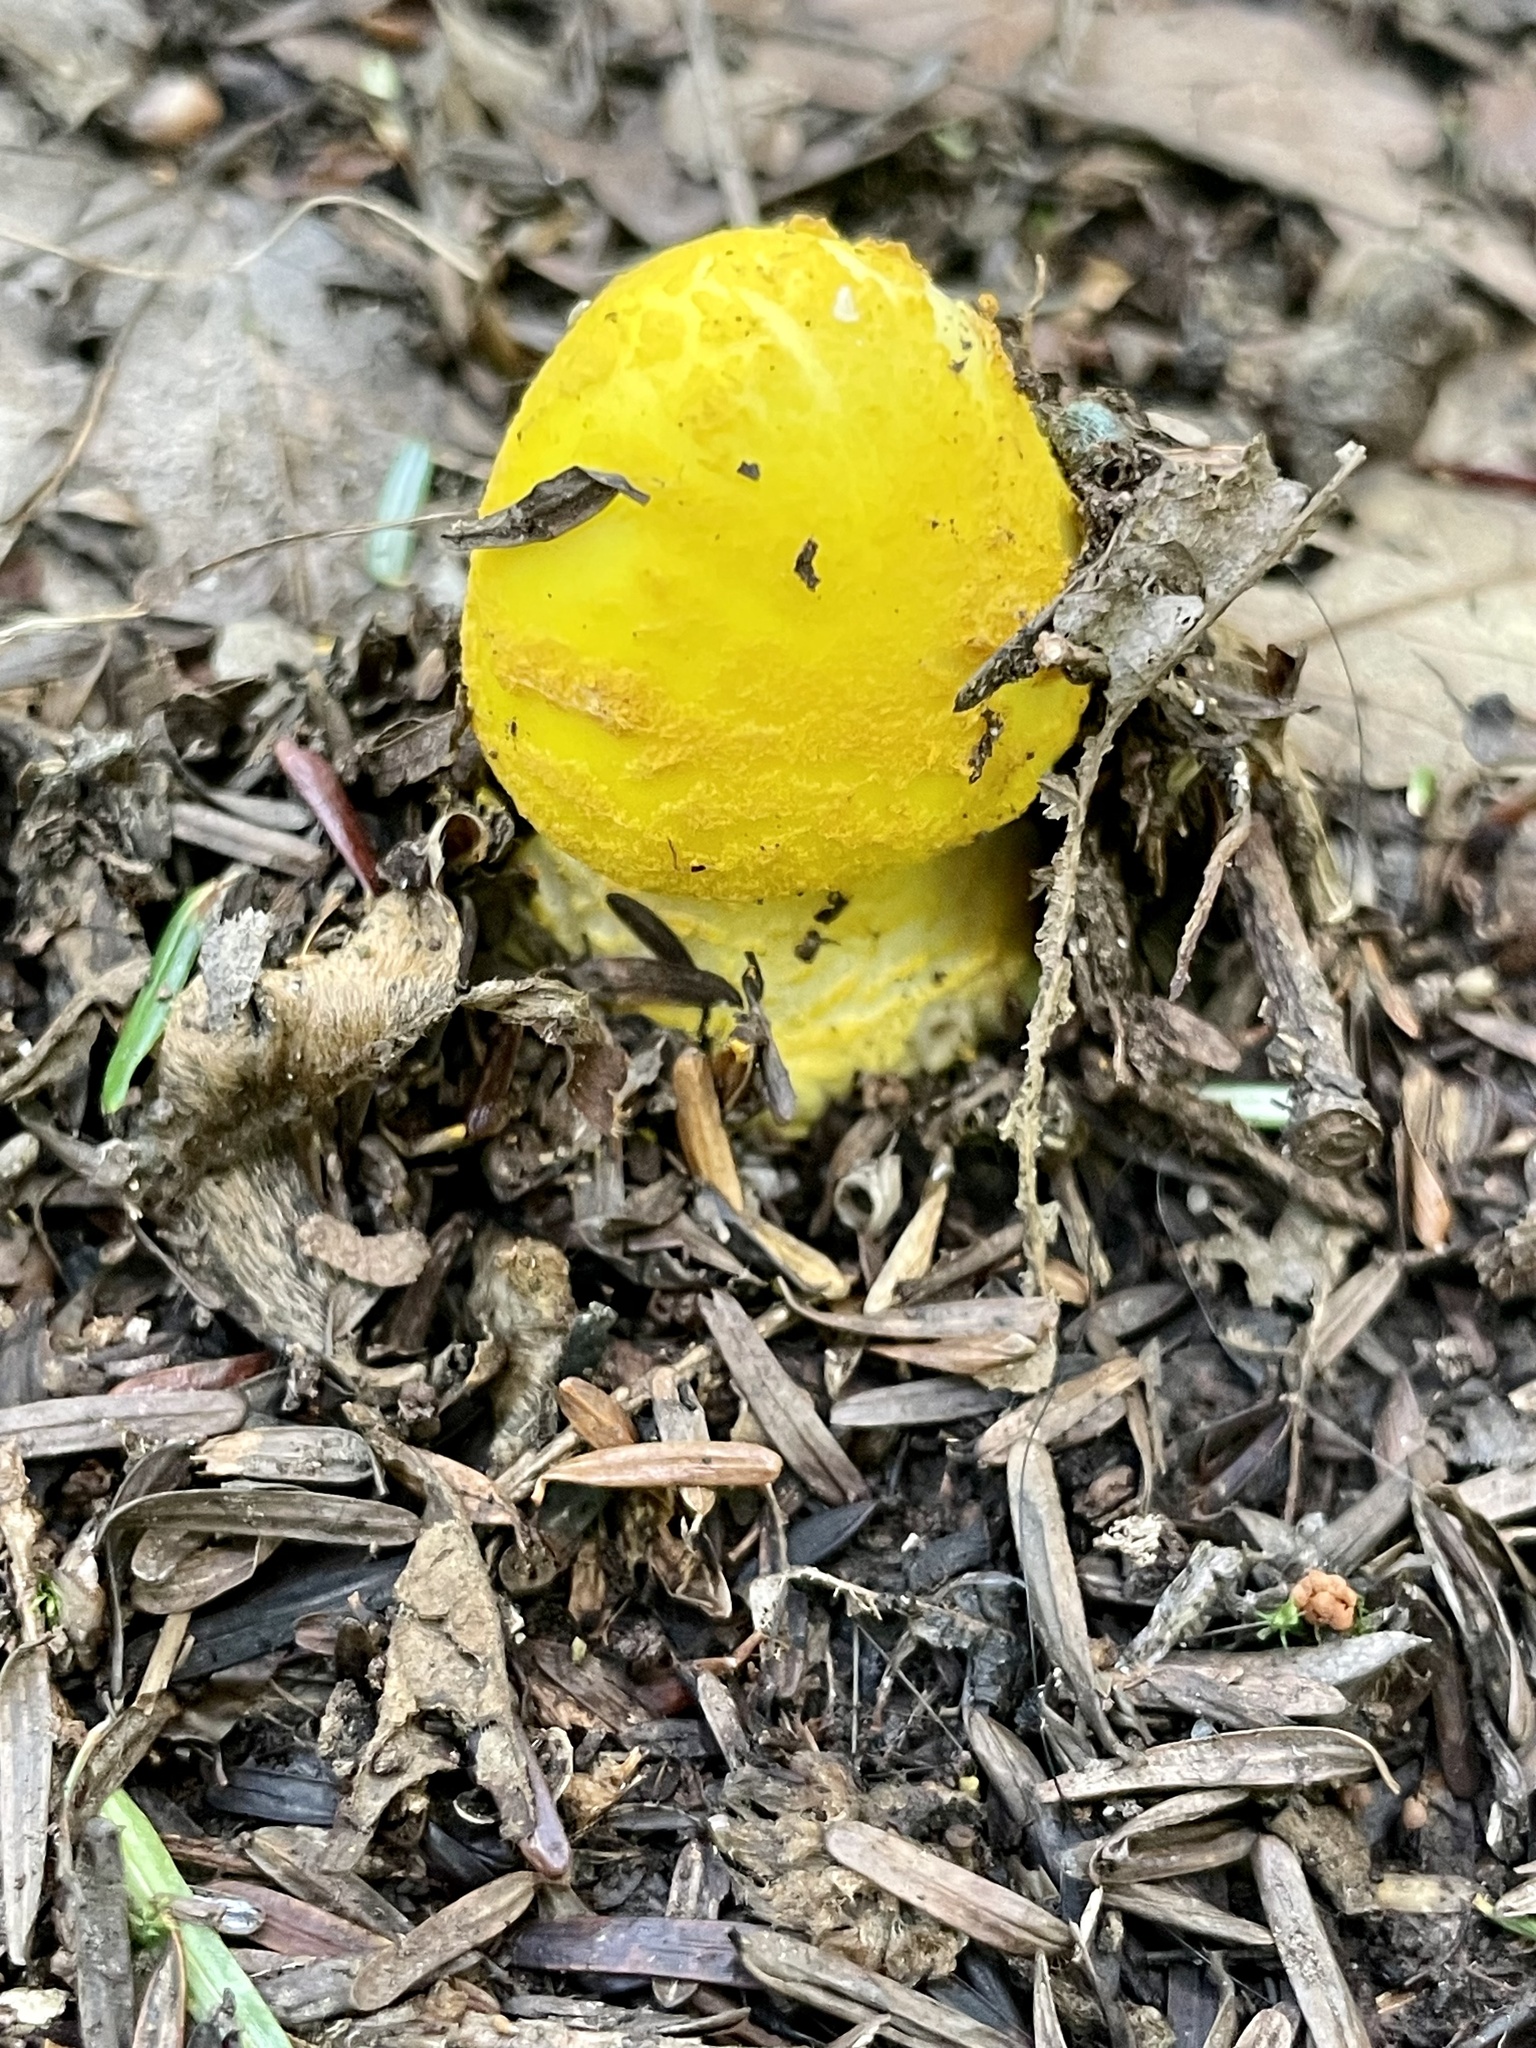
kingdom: Fungi
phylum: Basidiomycota
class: Agaricomycetes
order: Agaricales
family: Amanitaceae
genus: Amanita
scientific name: Amanita flavoconia
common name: Yellow patches
